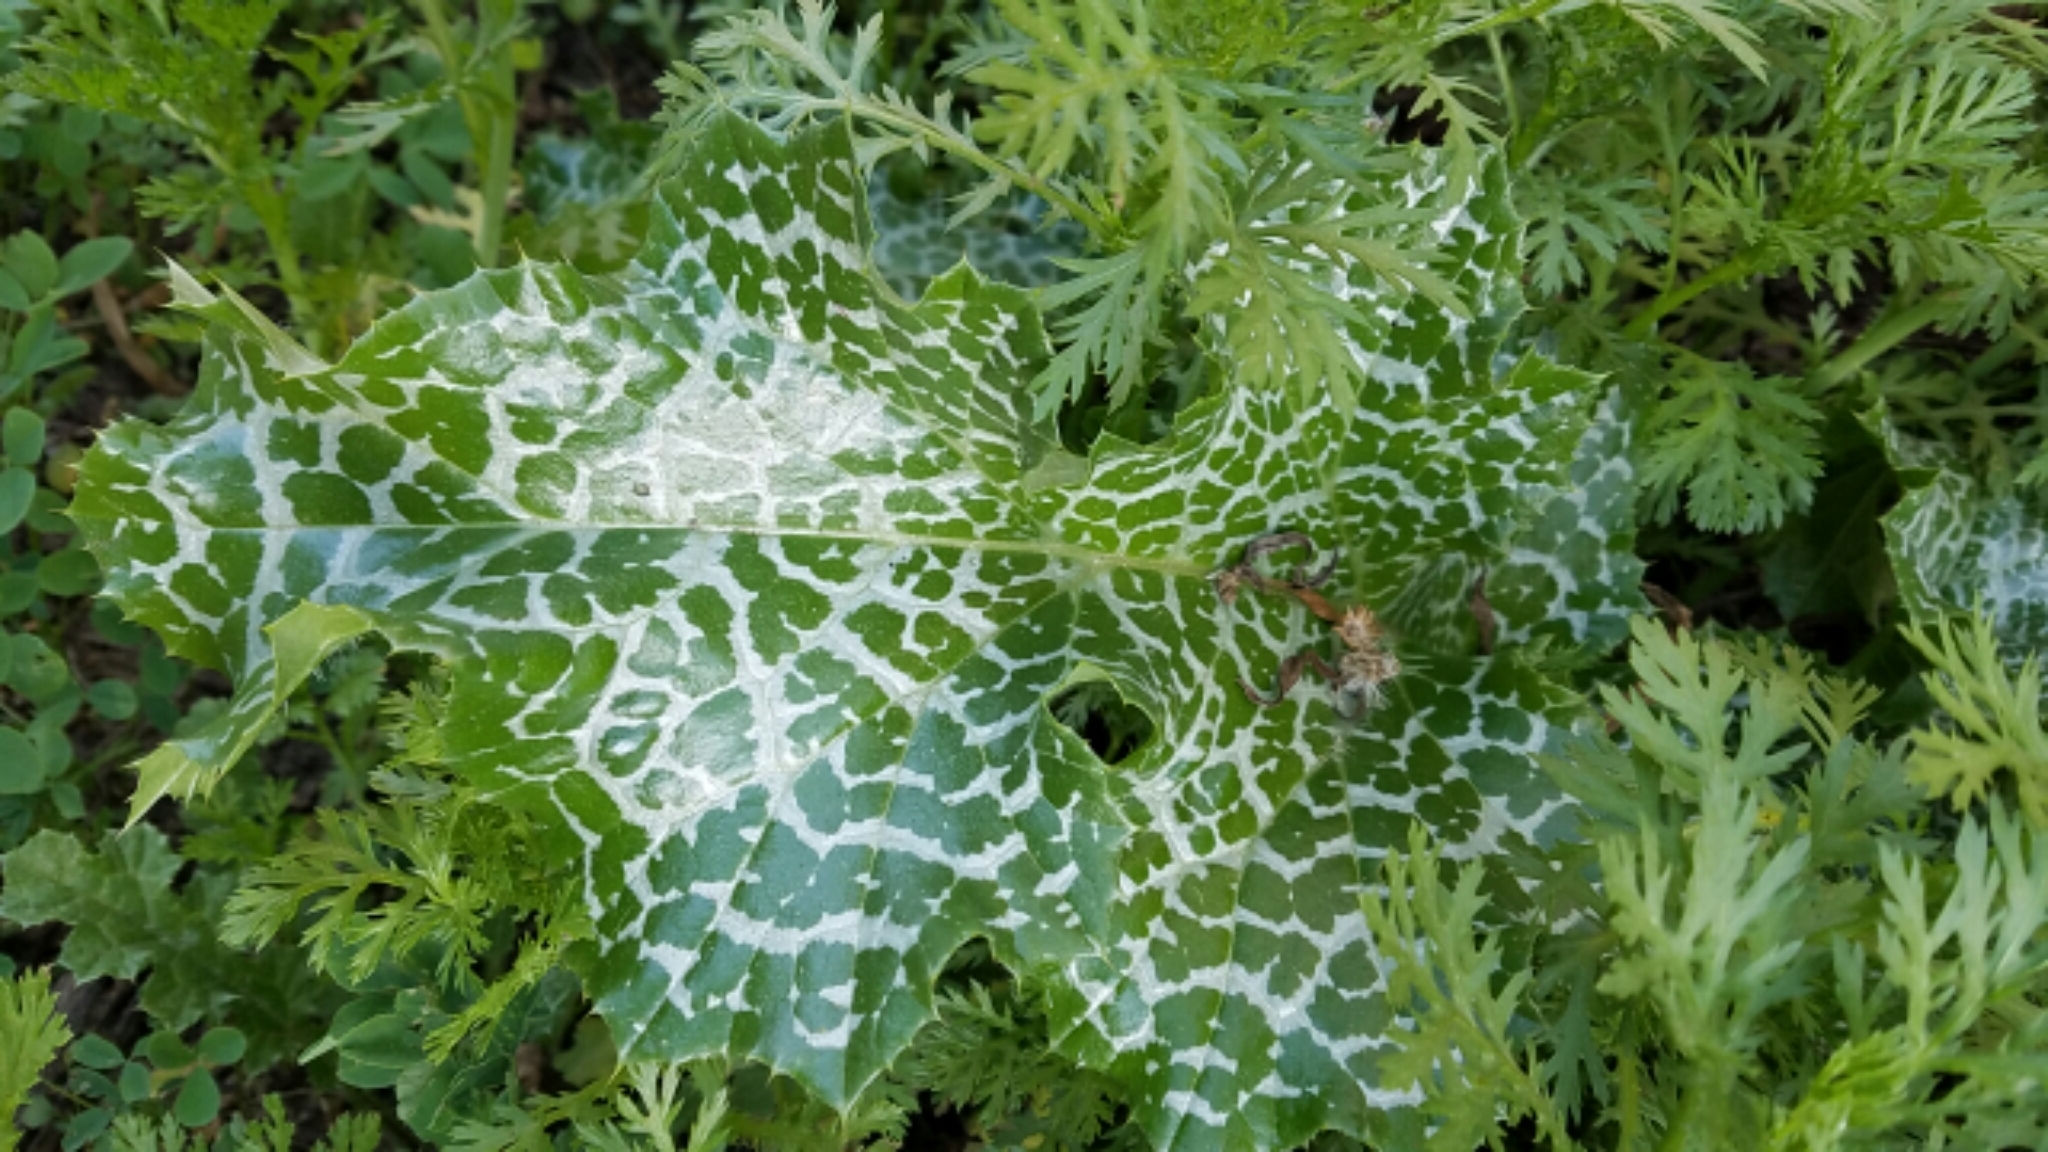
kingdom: Plantae
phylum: Tracheophyta
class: Magnoliopsida
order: Asterales
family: Asteraceae
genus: Silybum
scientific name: Silybum marianum
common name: Milk thistle
